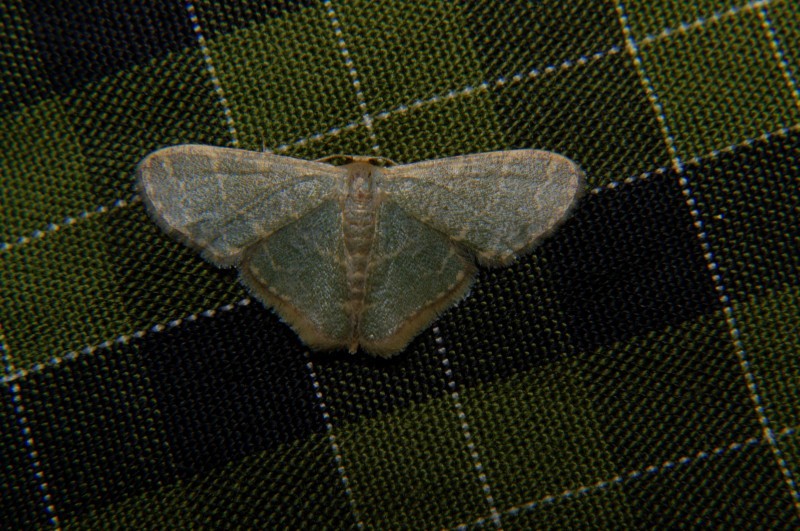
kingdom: Animalia
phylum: Arthropoda
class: Insecta
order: Lepidoptera
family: Geometridae
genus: Lophophleps
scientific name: Lophophleps triangularis
